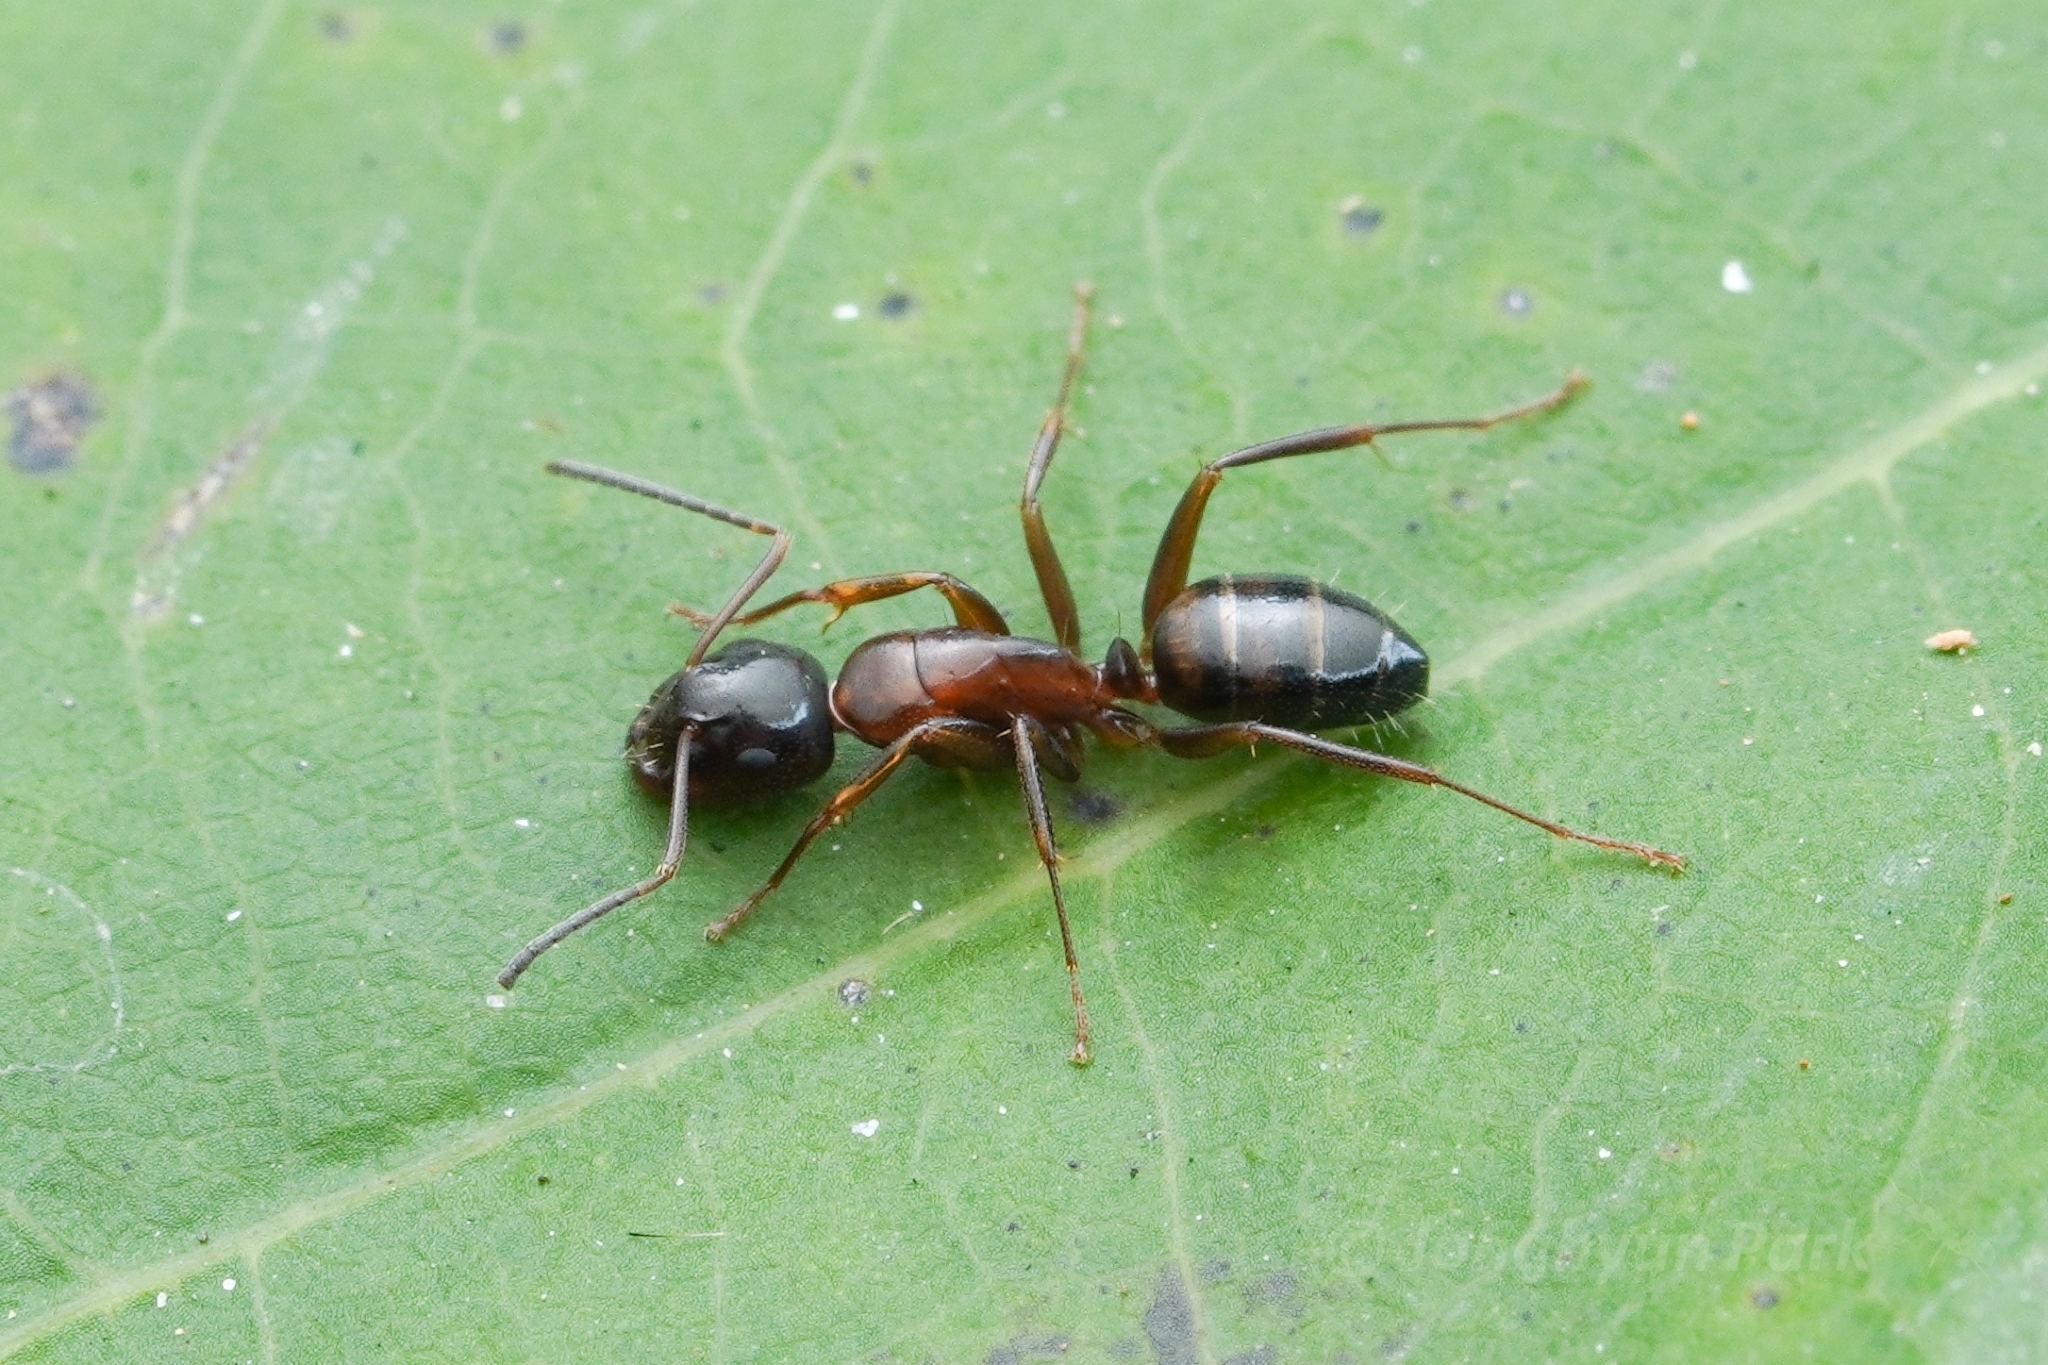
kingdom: Animalia
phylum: Arthropoda
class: Insecta
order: Hymenoptera
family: Formicidae
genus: Camponotus
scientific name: Camponotus nearcticus
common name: Smaller carpenter ant
